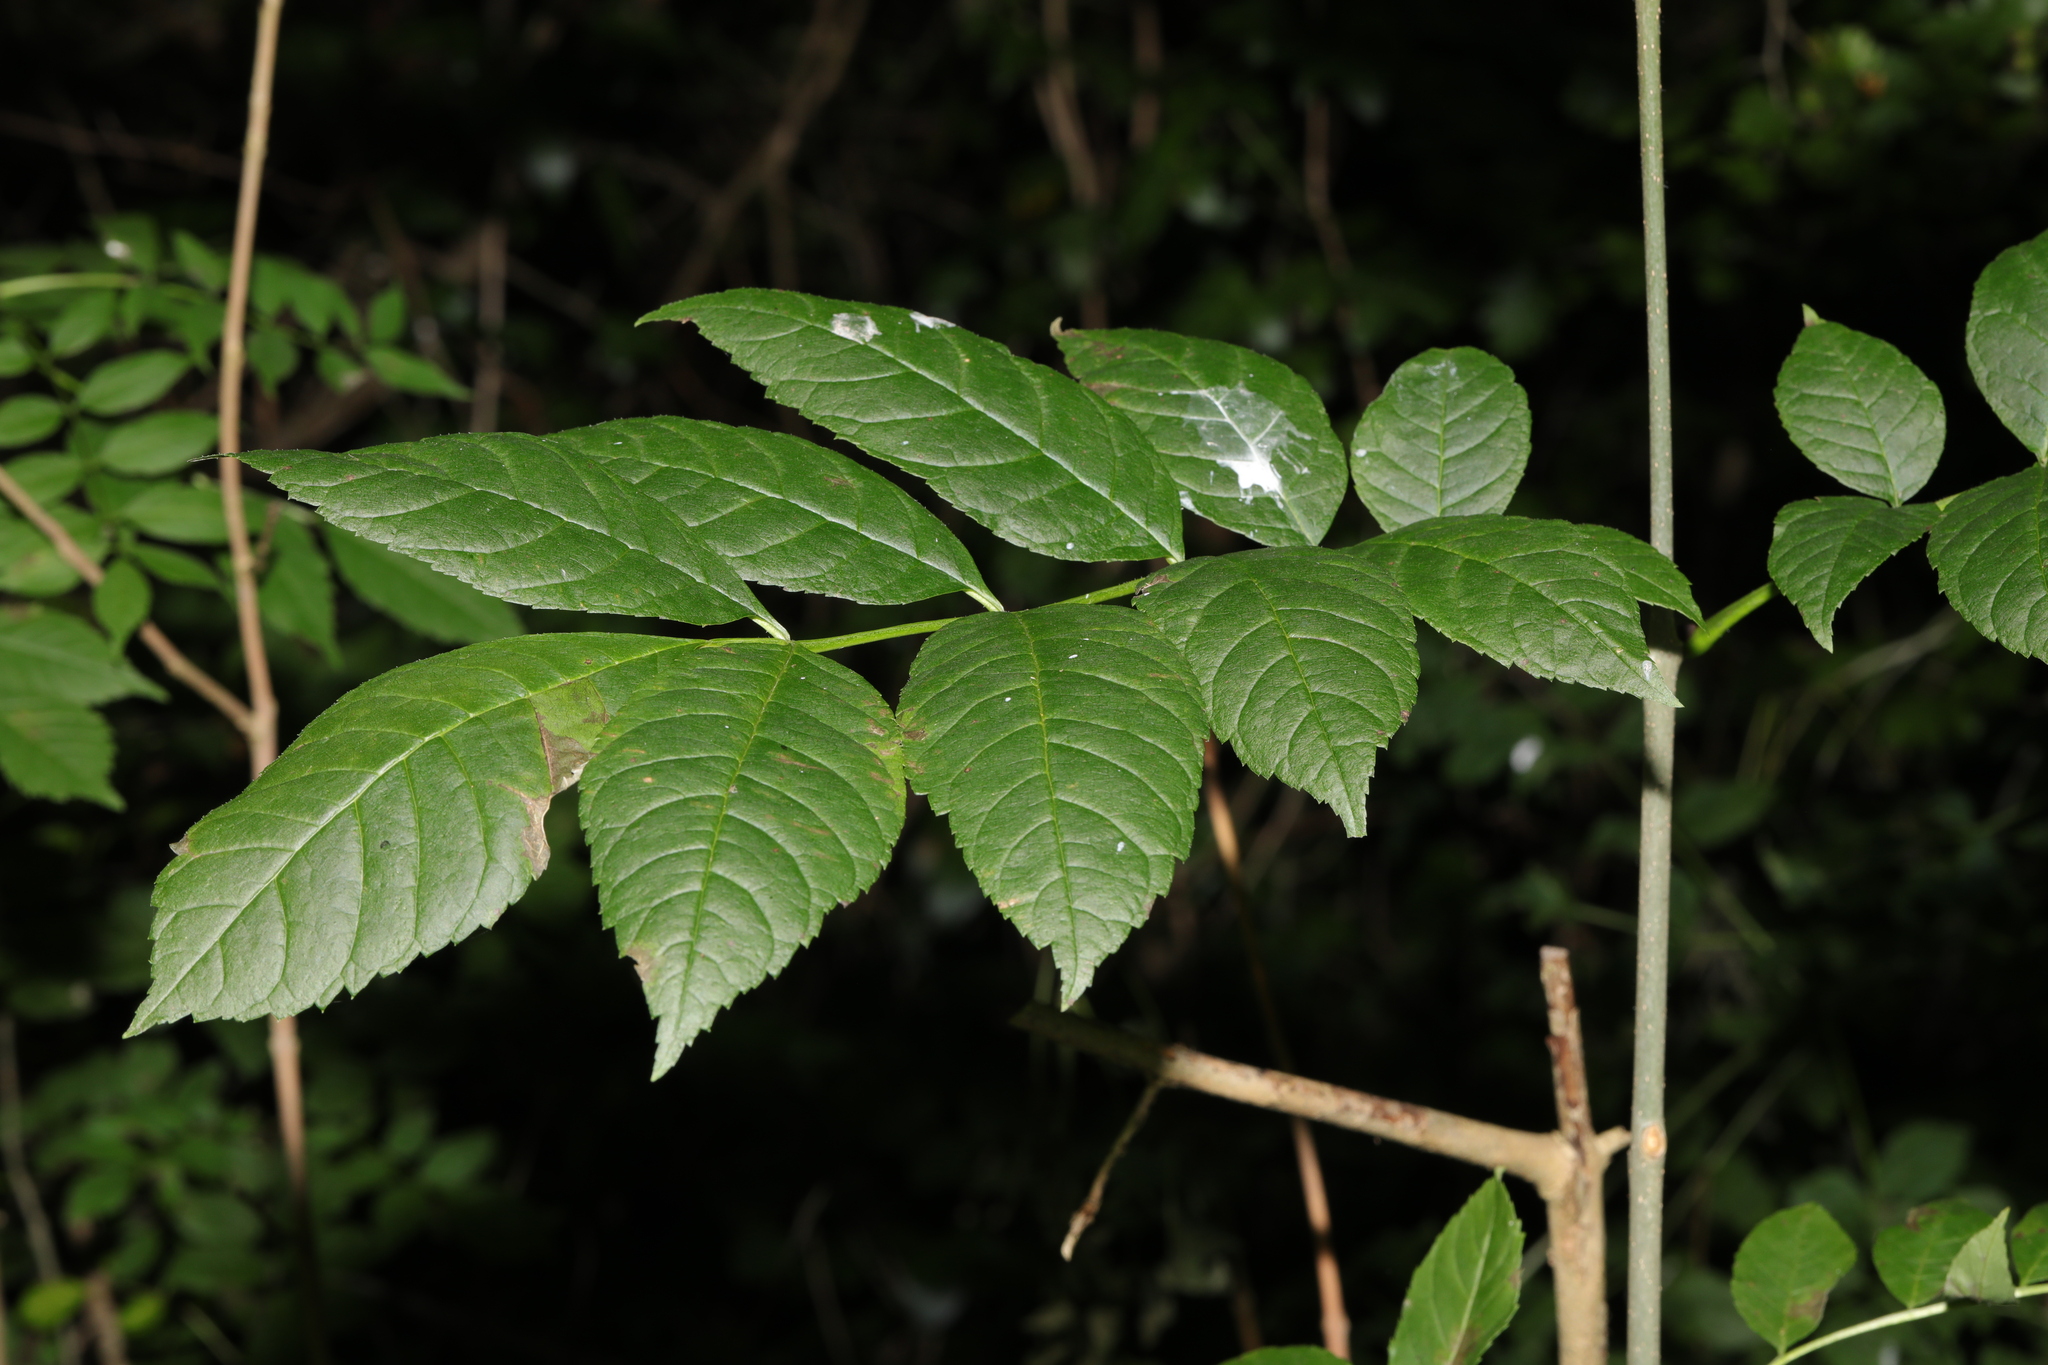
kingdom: Plantae
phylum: Tracheophyta
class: Magnoliopsida
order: Lamiales
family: Oleaceae
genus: Fraxinus
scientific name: Fraxinus excelsior
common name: European ash
